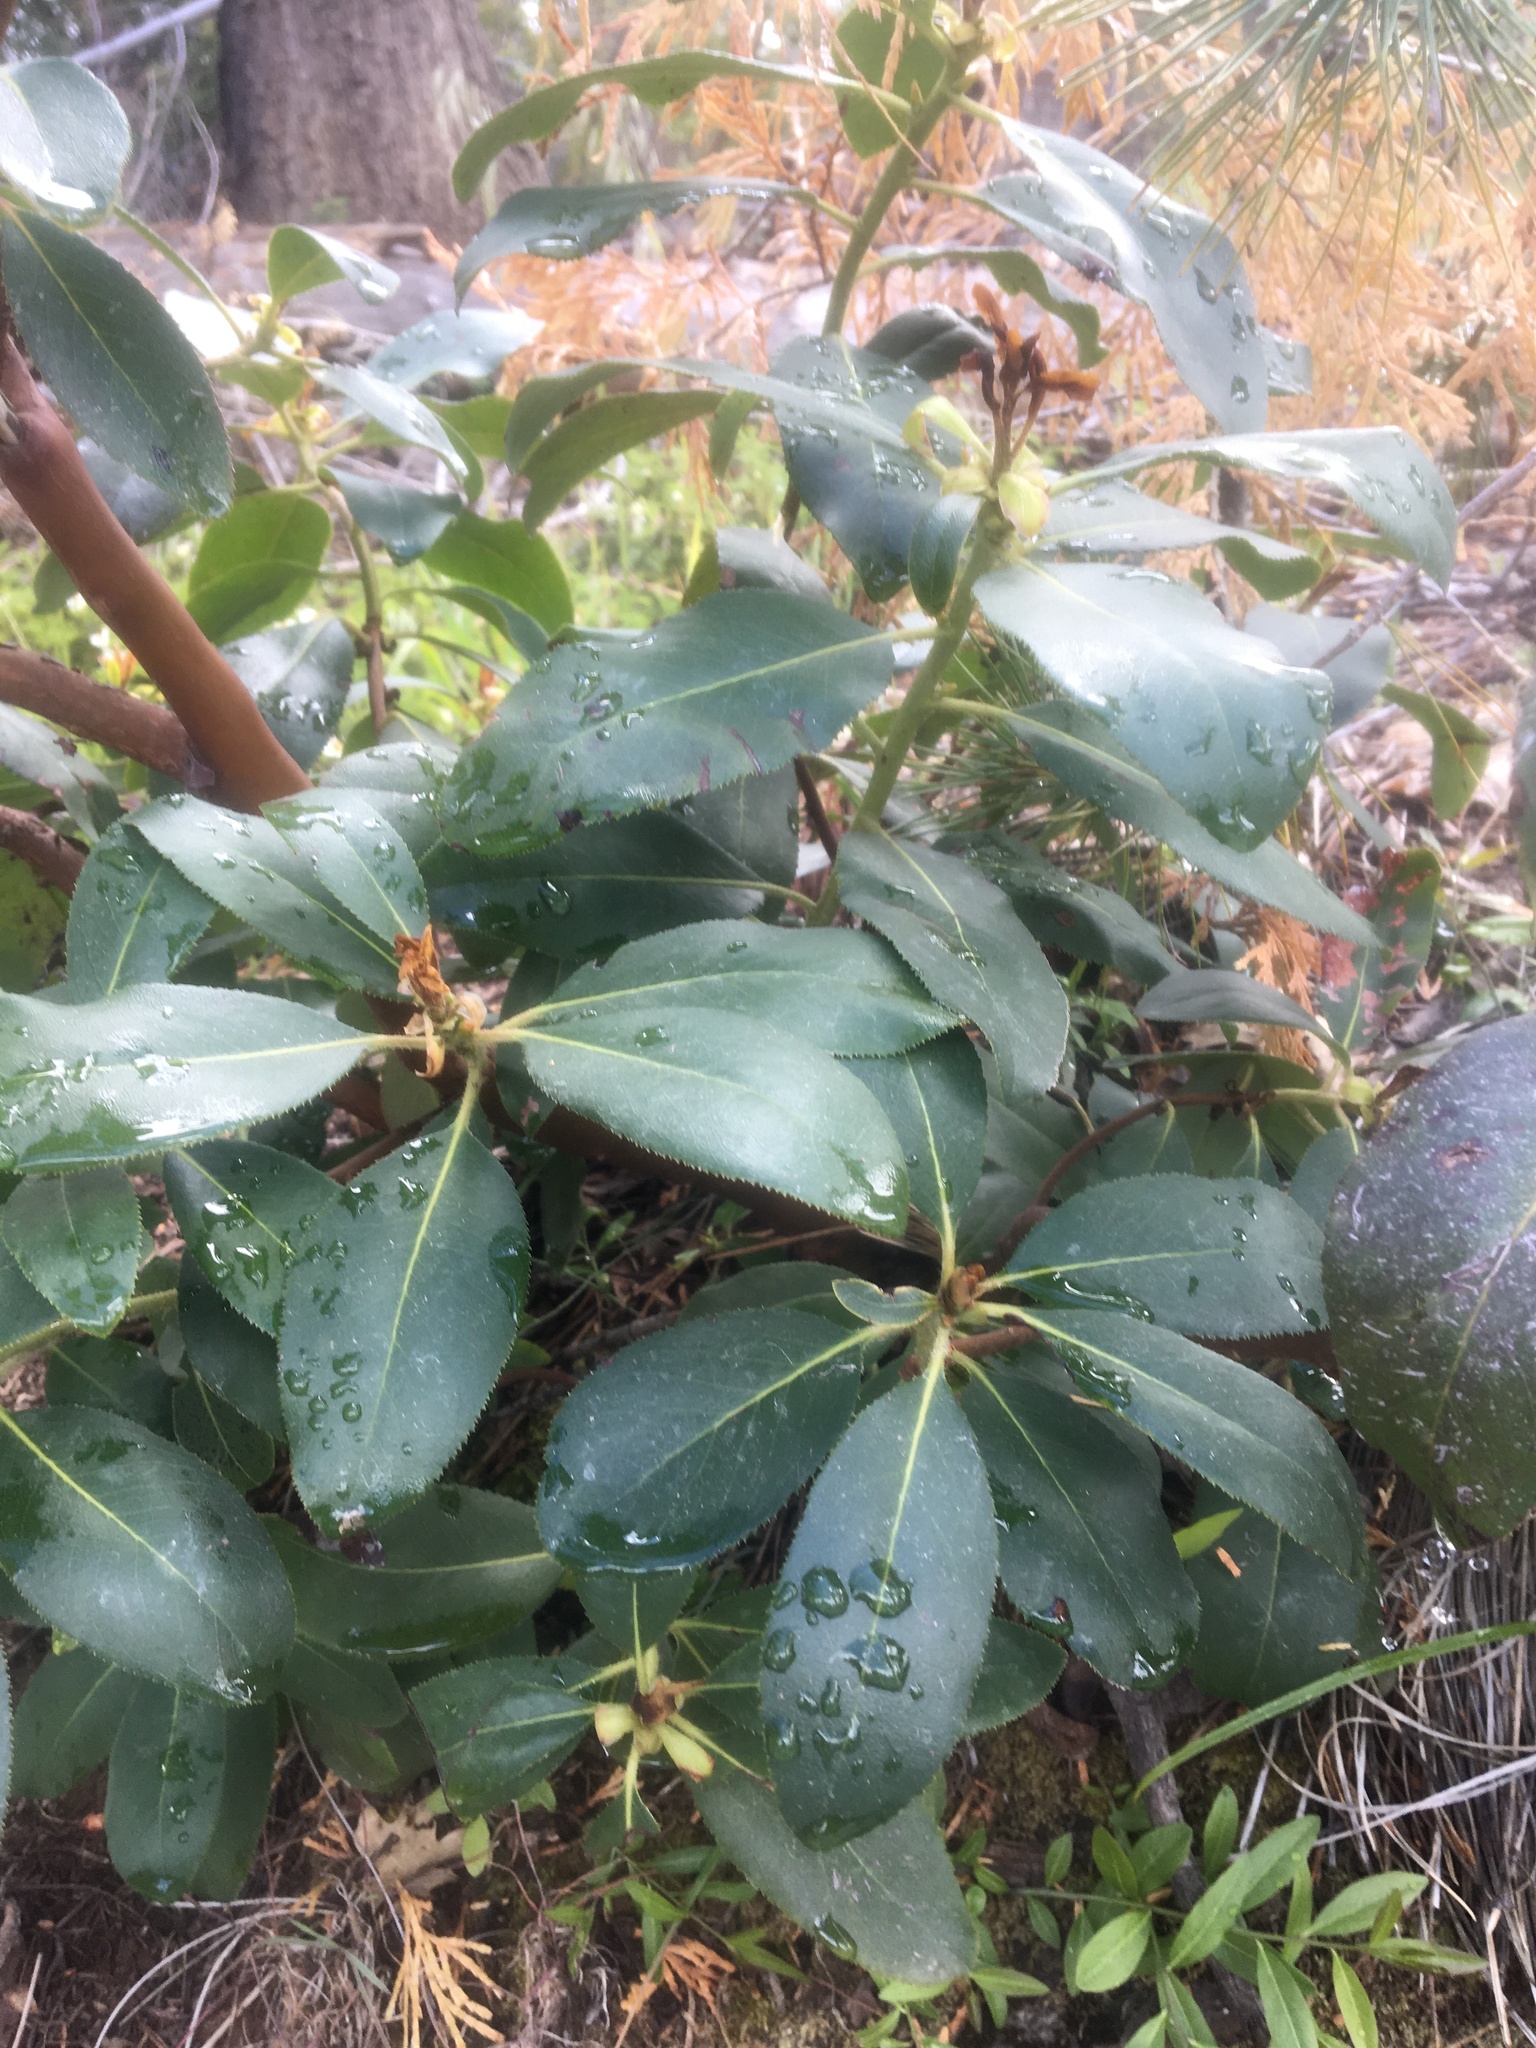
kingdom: Plantae
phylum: Tracheophyta
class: Magnoliopsida
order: Ericales
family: Ericaceae
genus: Arbutus
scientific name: Arbutus menziesii
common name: Pacific madrone
